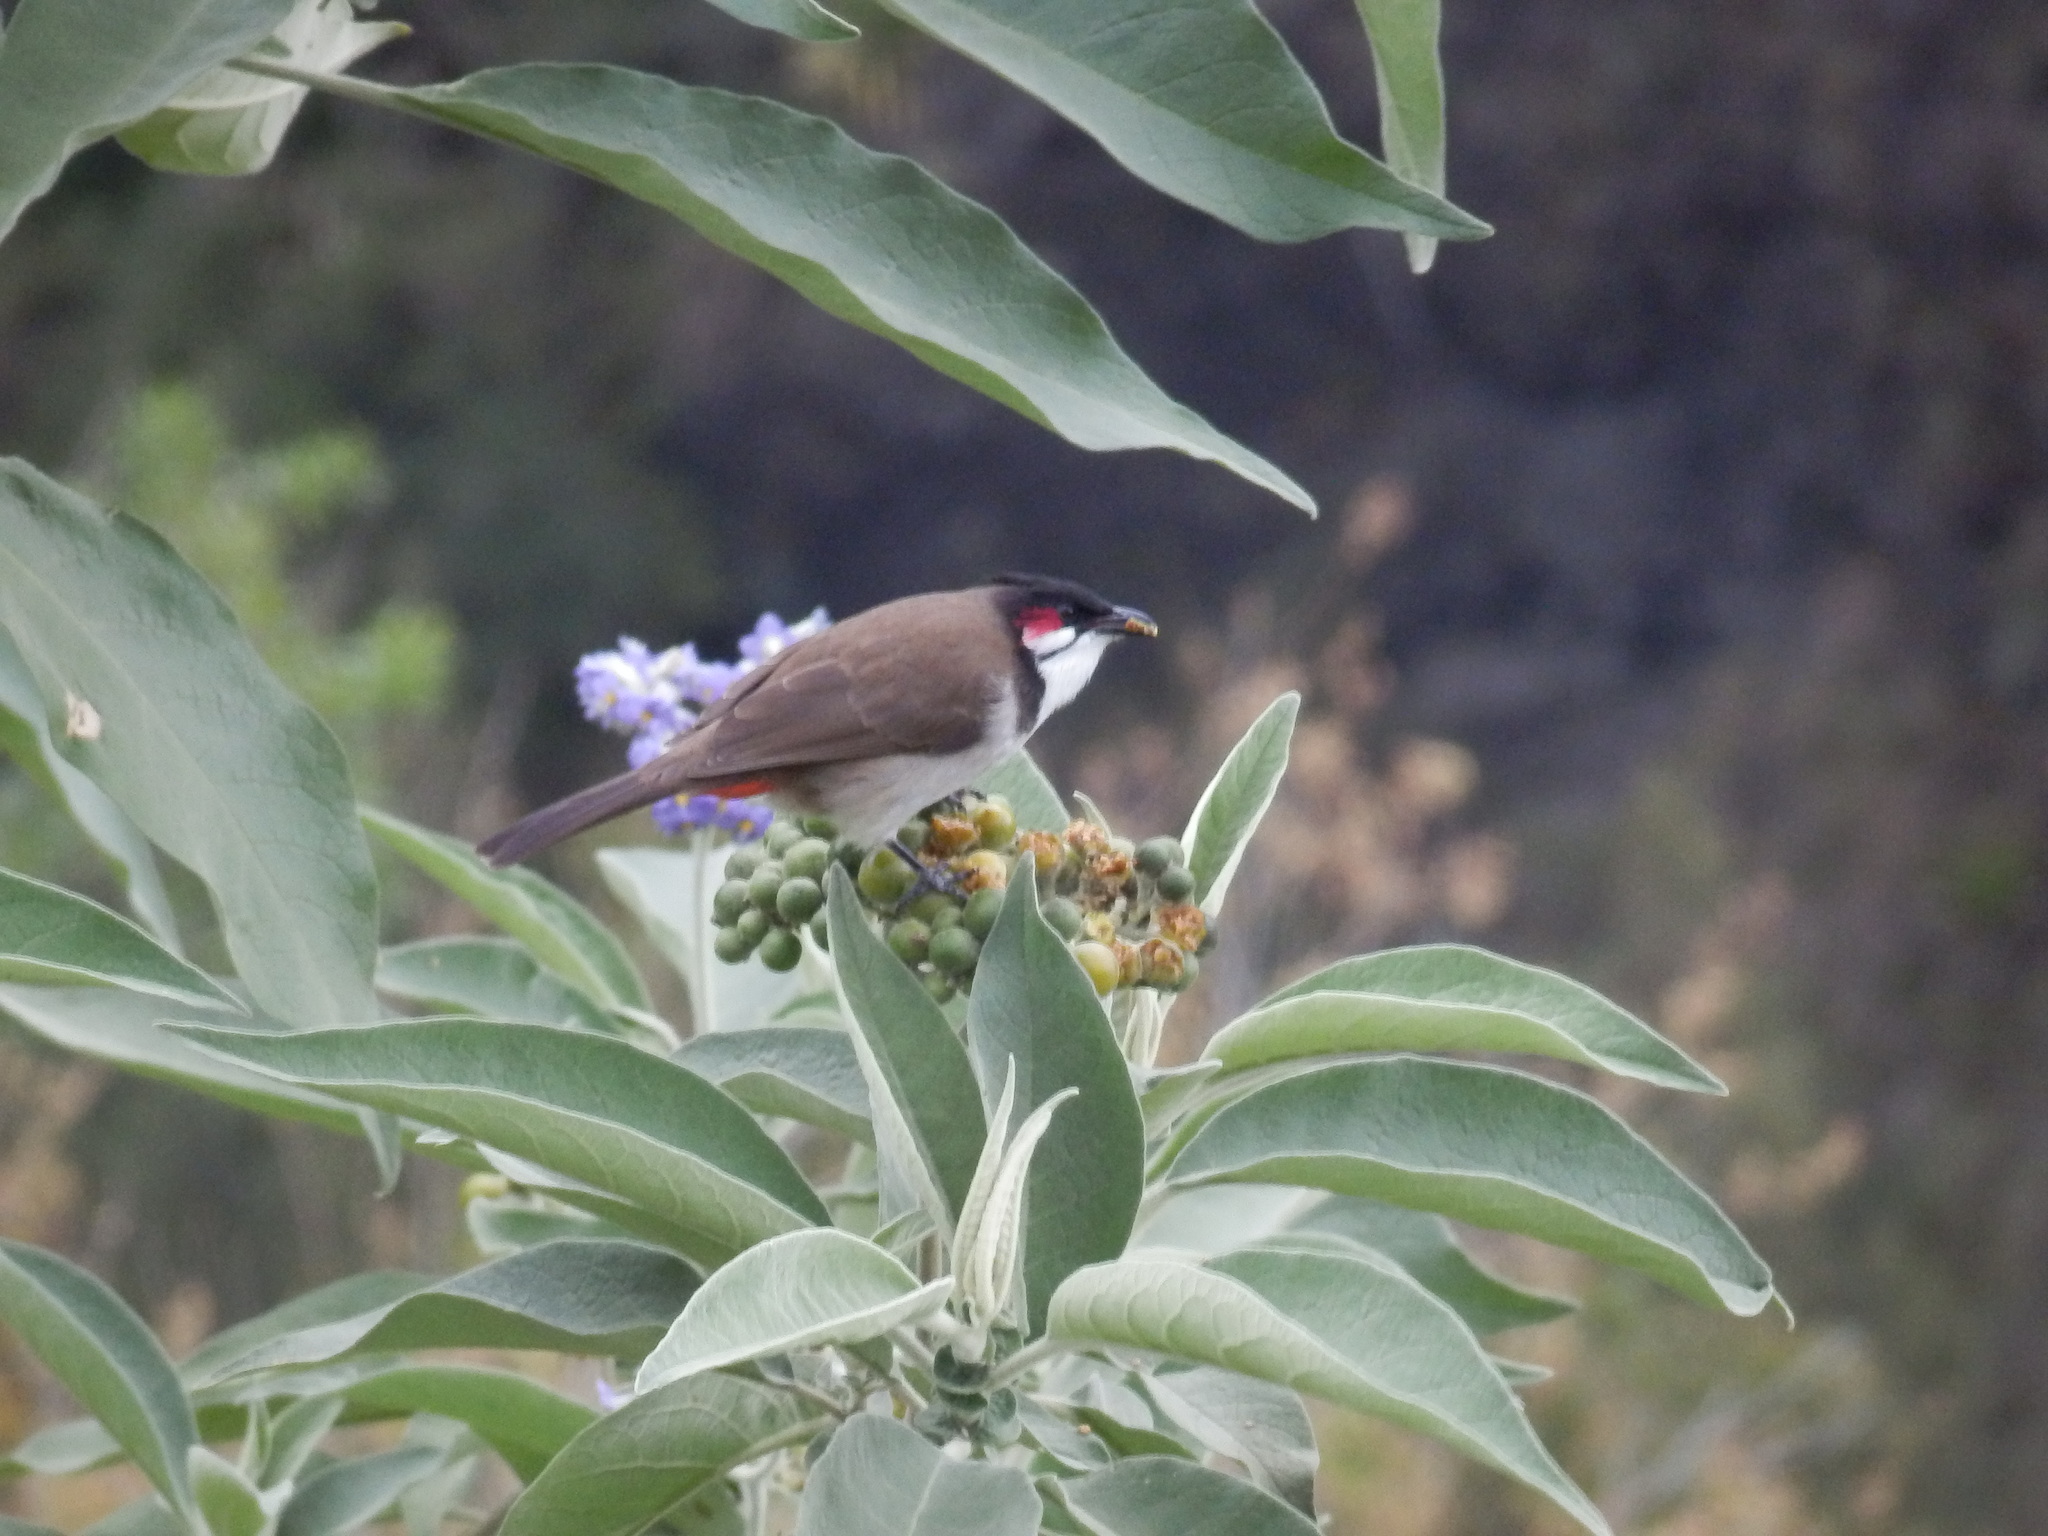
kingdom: Animalia
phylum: Chordata
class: Aves
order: Passeriformes
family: Pycnonotidae
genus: Pycnonotus
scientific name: Pycnonotus jocosus
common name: Red-whiskered bulbul
